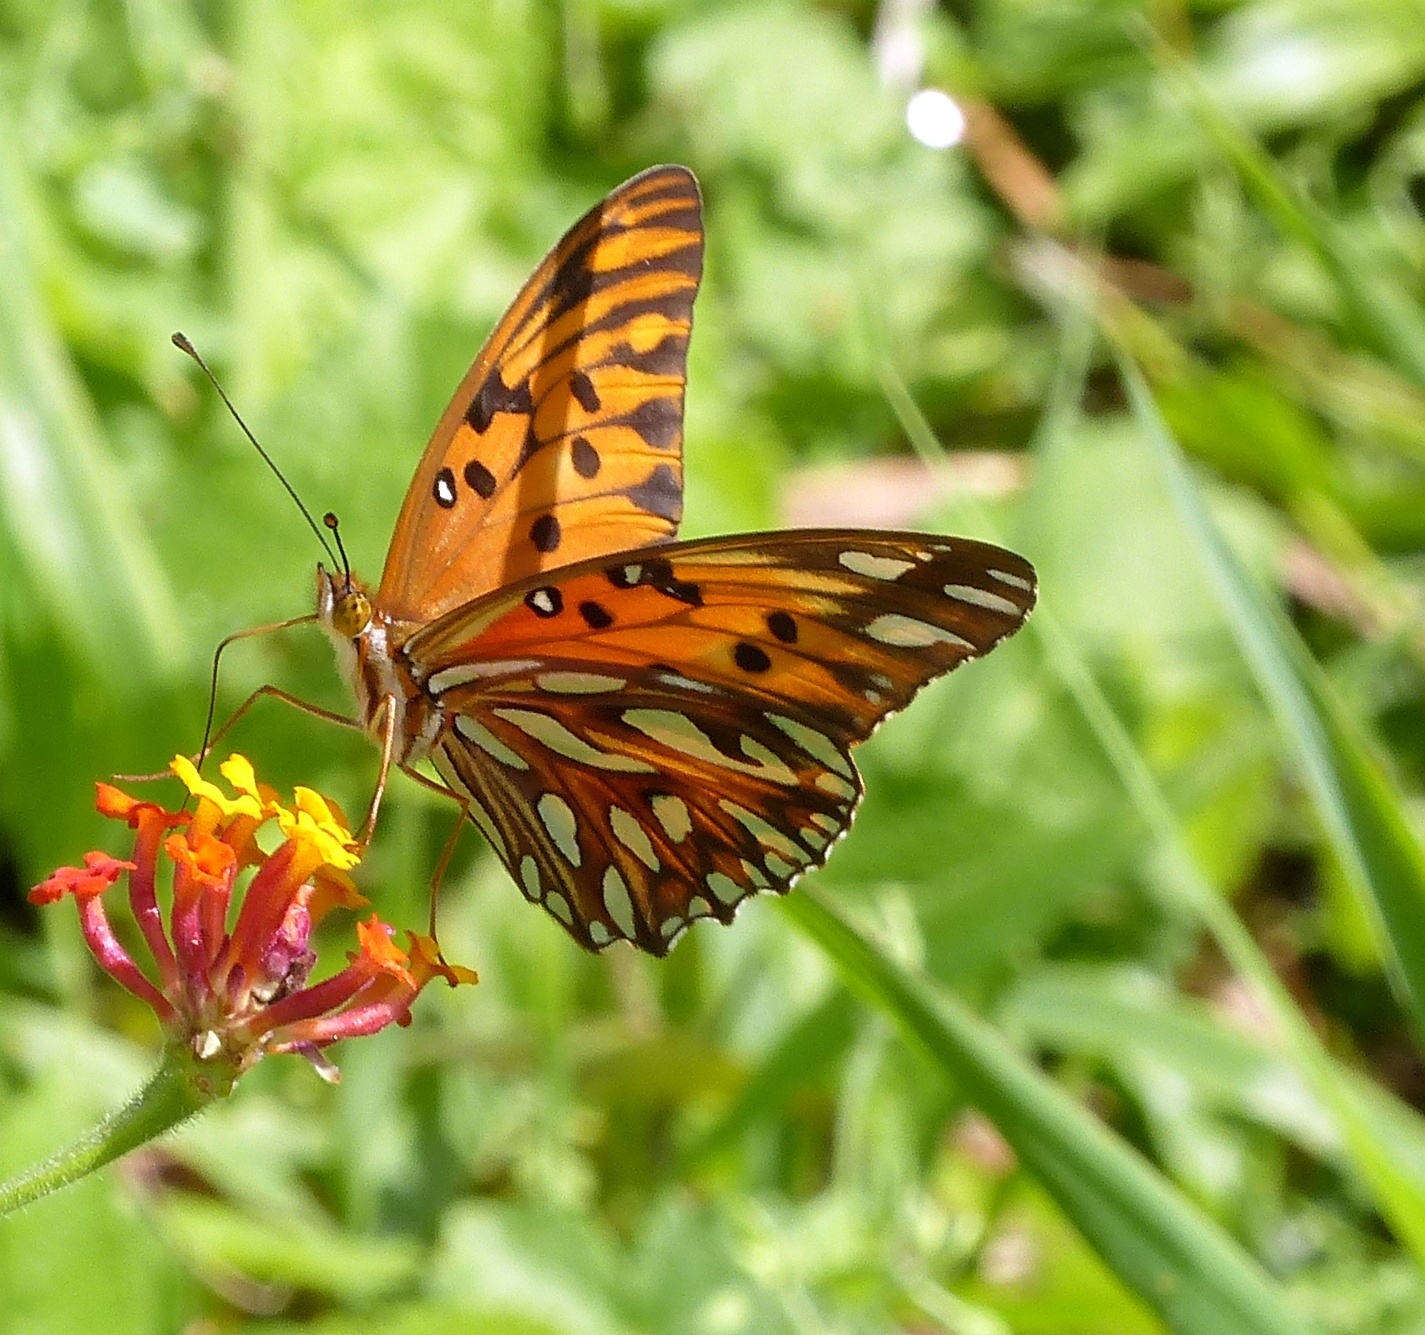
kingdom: Animalia
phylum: Arthropoda
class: Insecta
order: Lepidoptera
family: Nymphalidae
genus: Dione
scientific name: Dione vanillae
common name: Gulf fritillary
